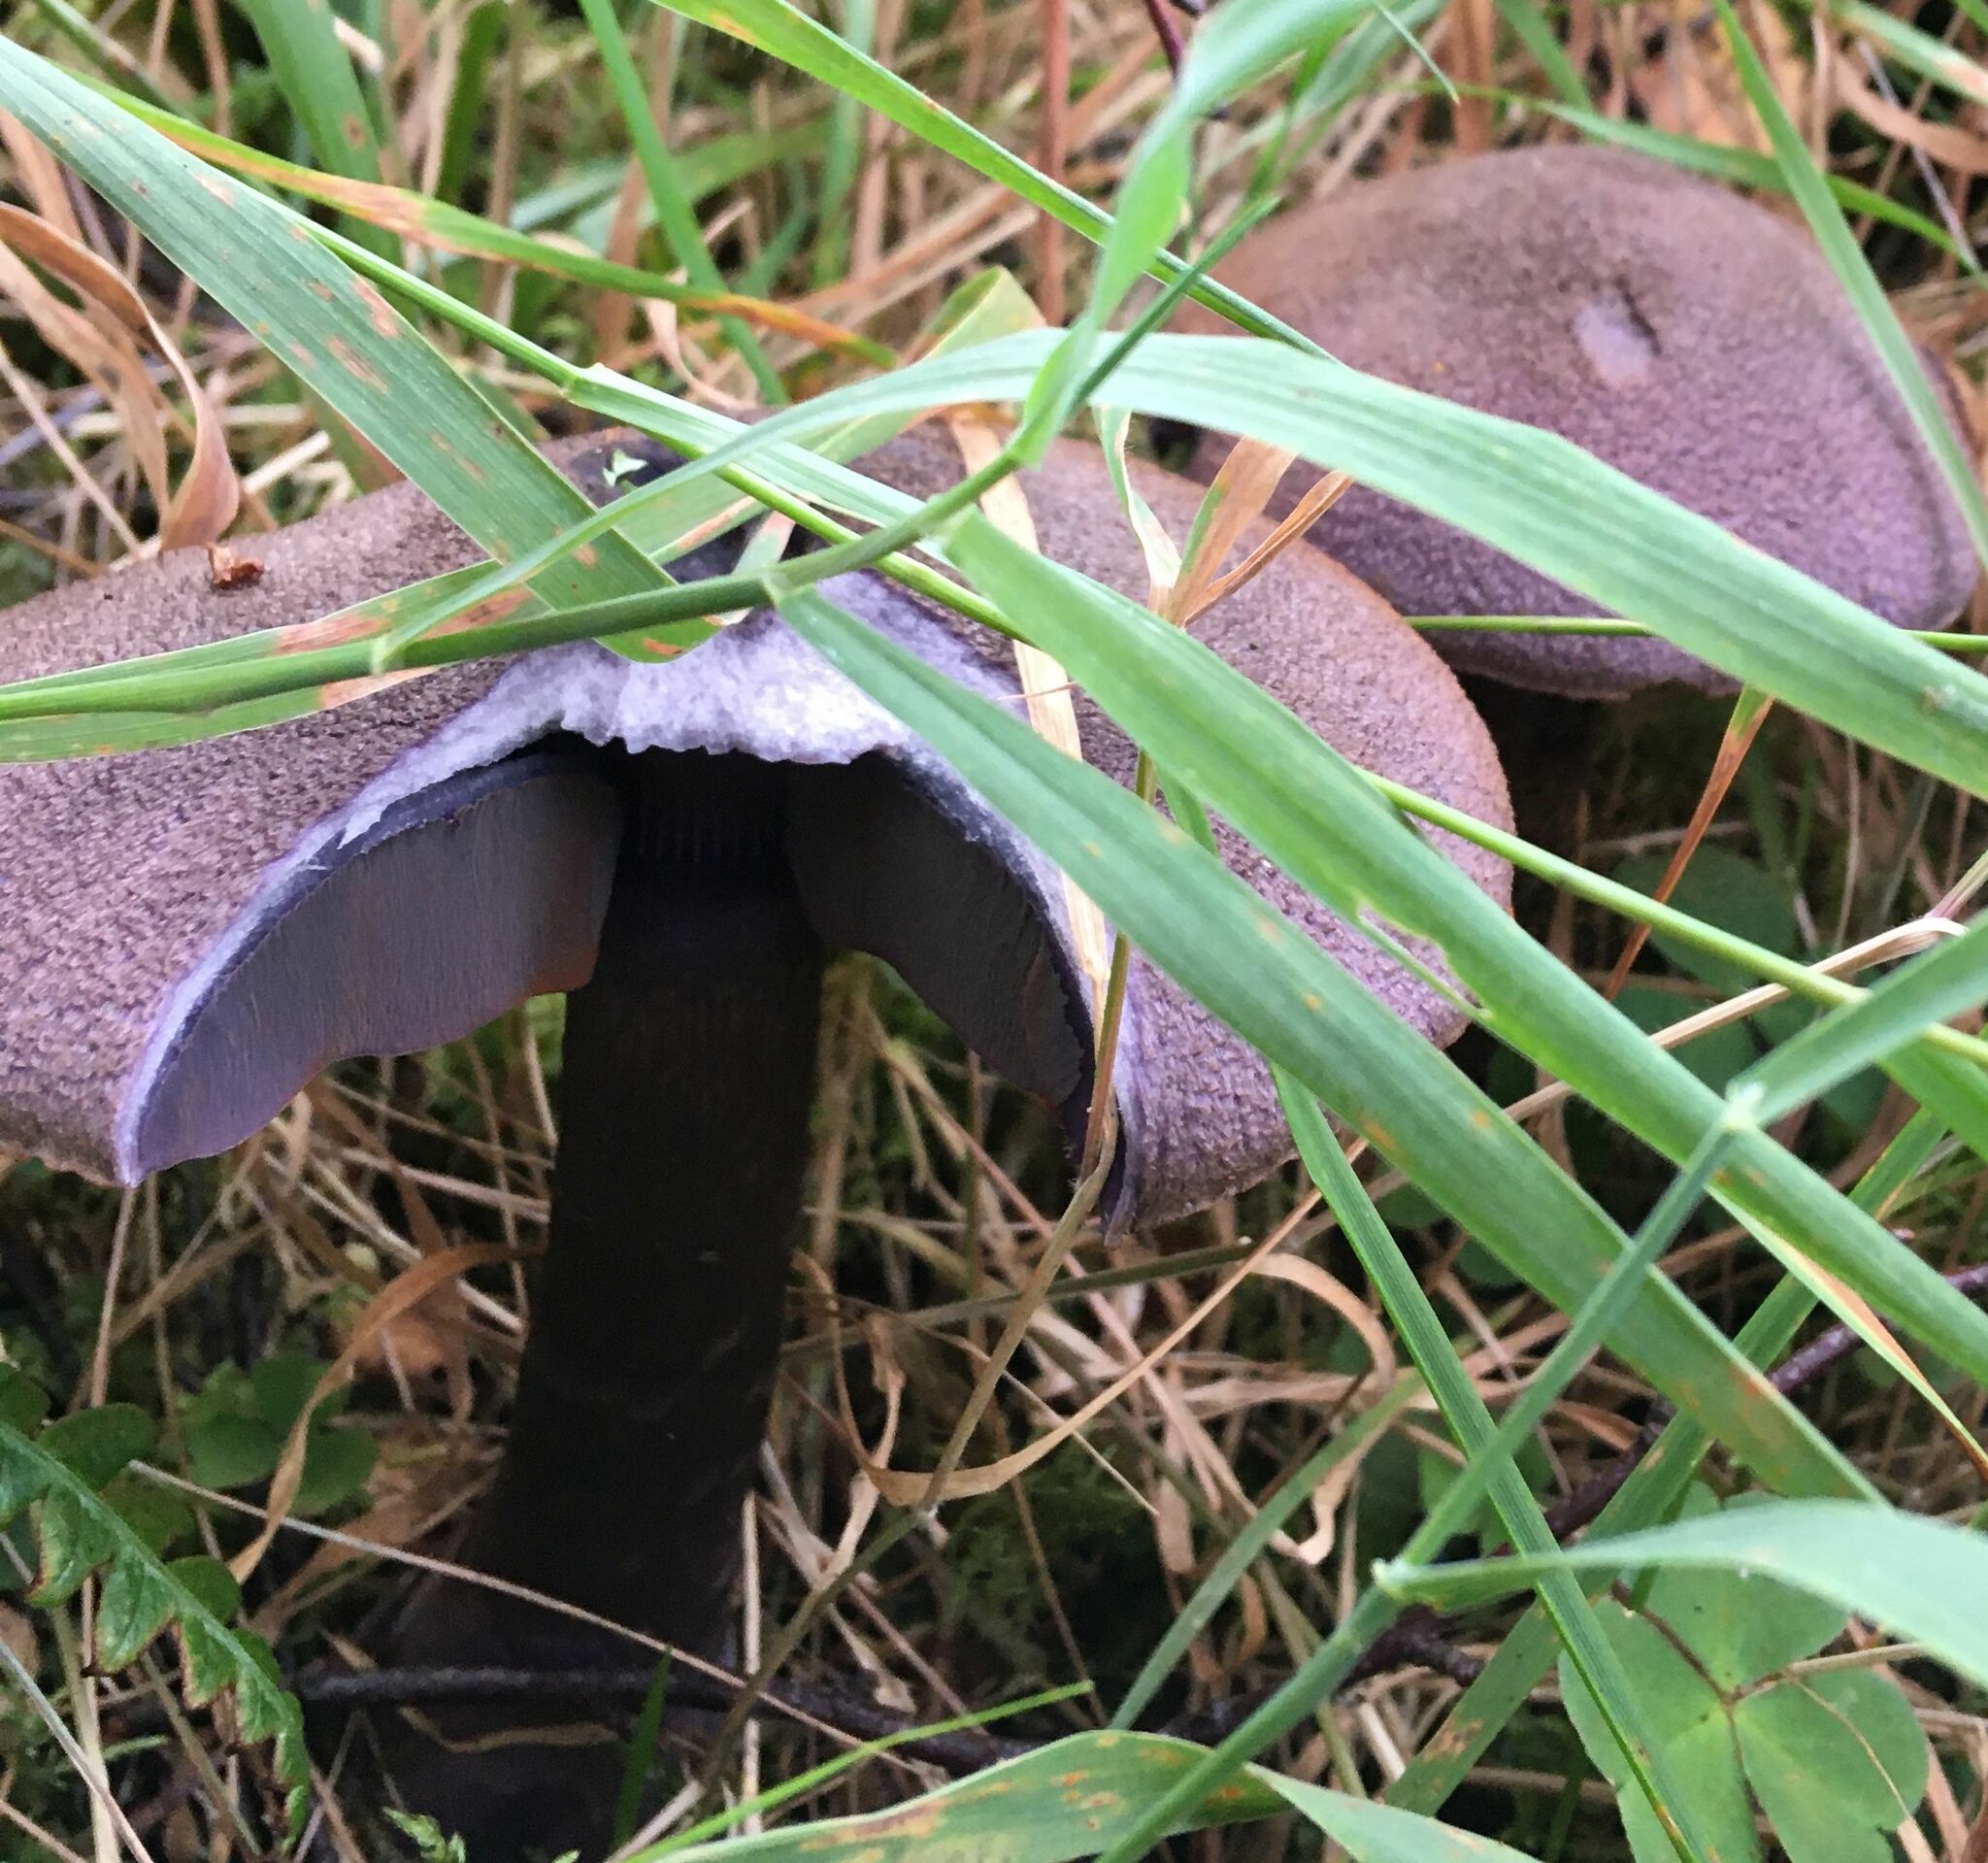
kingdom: Fungi
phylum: Basidiomycota
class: Agaricomycetes
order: Agaricales
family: Cortinariaceae
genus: Cortinarius
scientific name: Cortinarius violaceus
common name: Violet webcap
